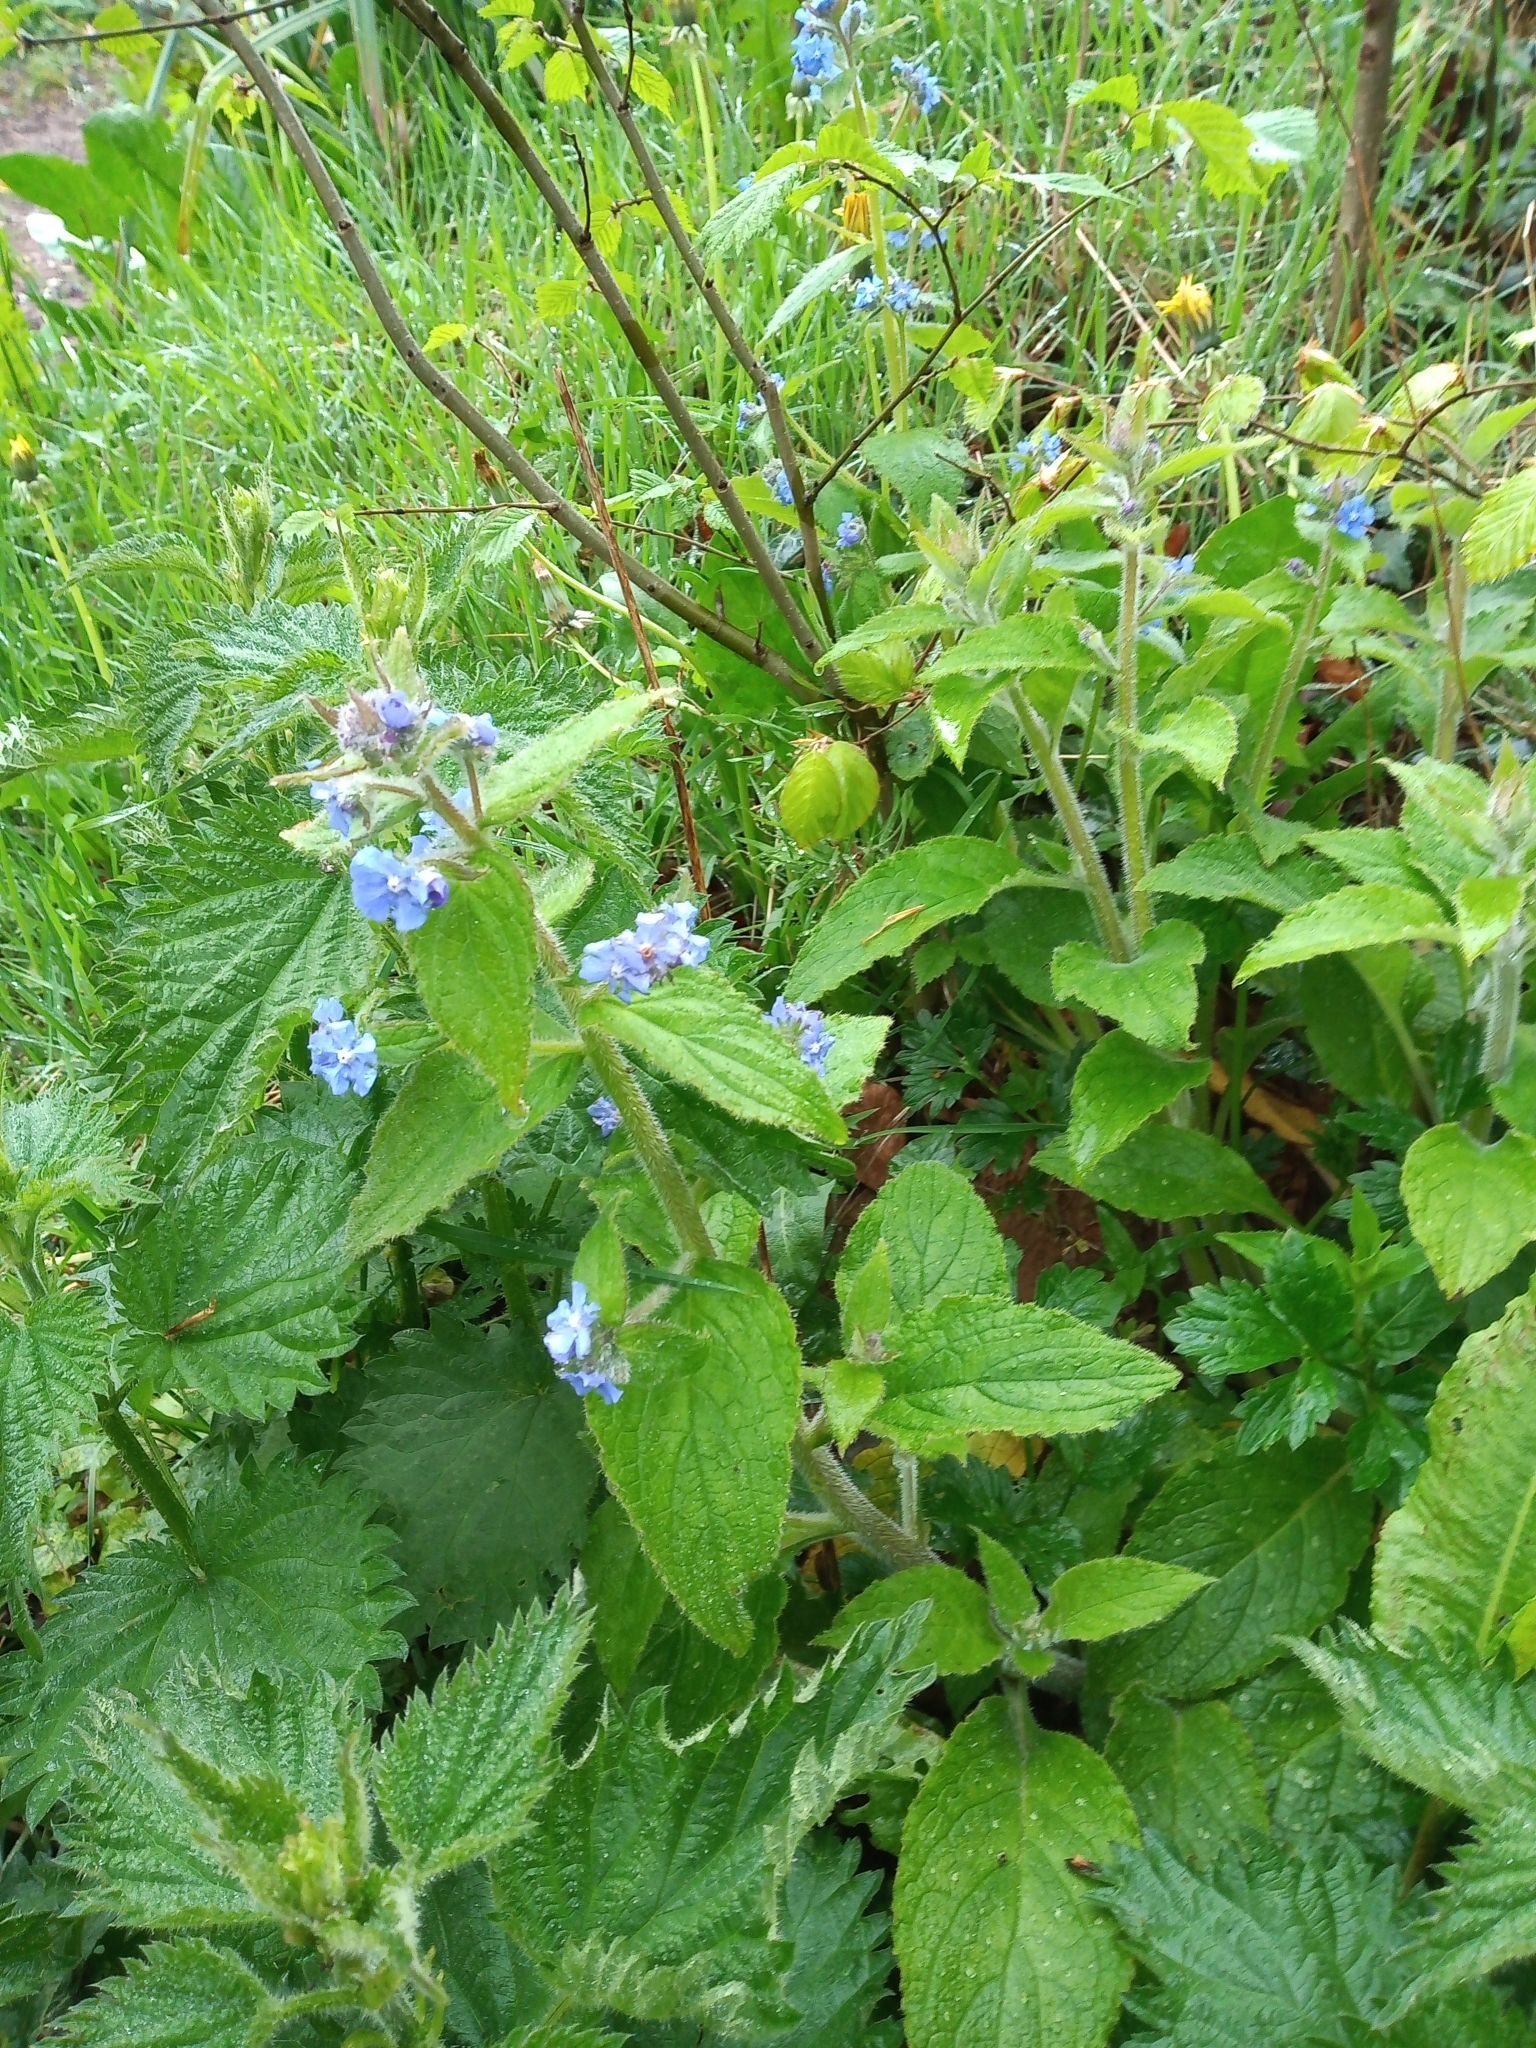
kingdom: Plantae
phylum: Tracheophyta
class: Magnoliopsida
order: Boraginales
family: Boraginaceae
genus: Pentaglottis
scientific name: Pentaglottis sempervirens
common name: Green alkanet
